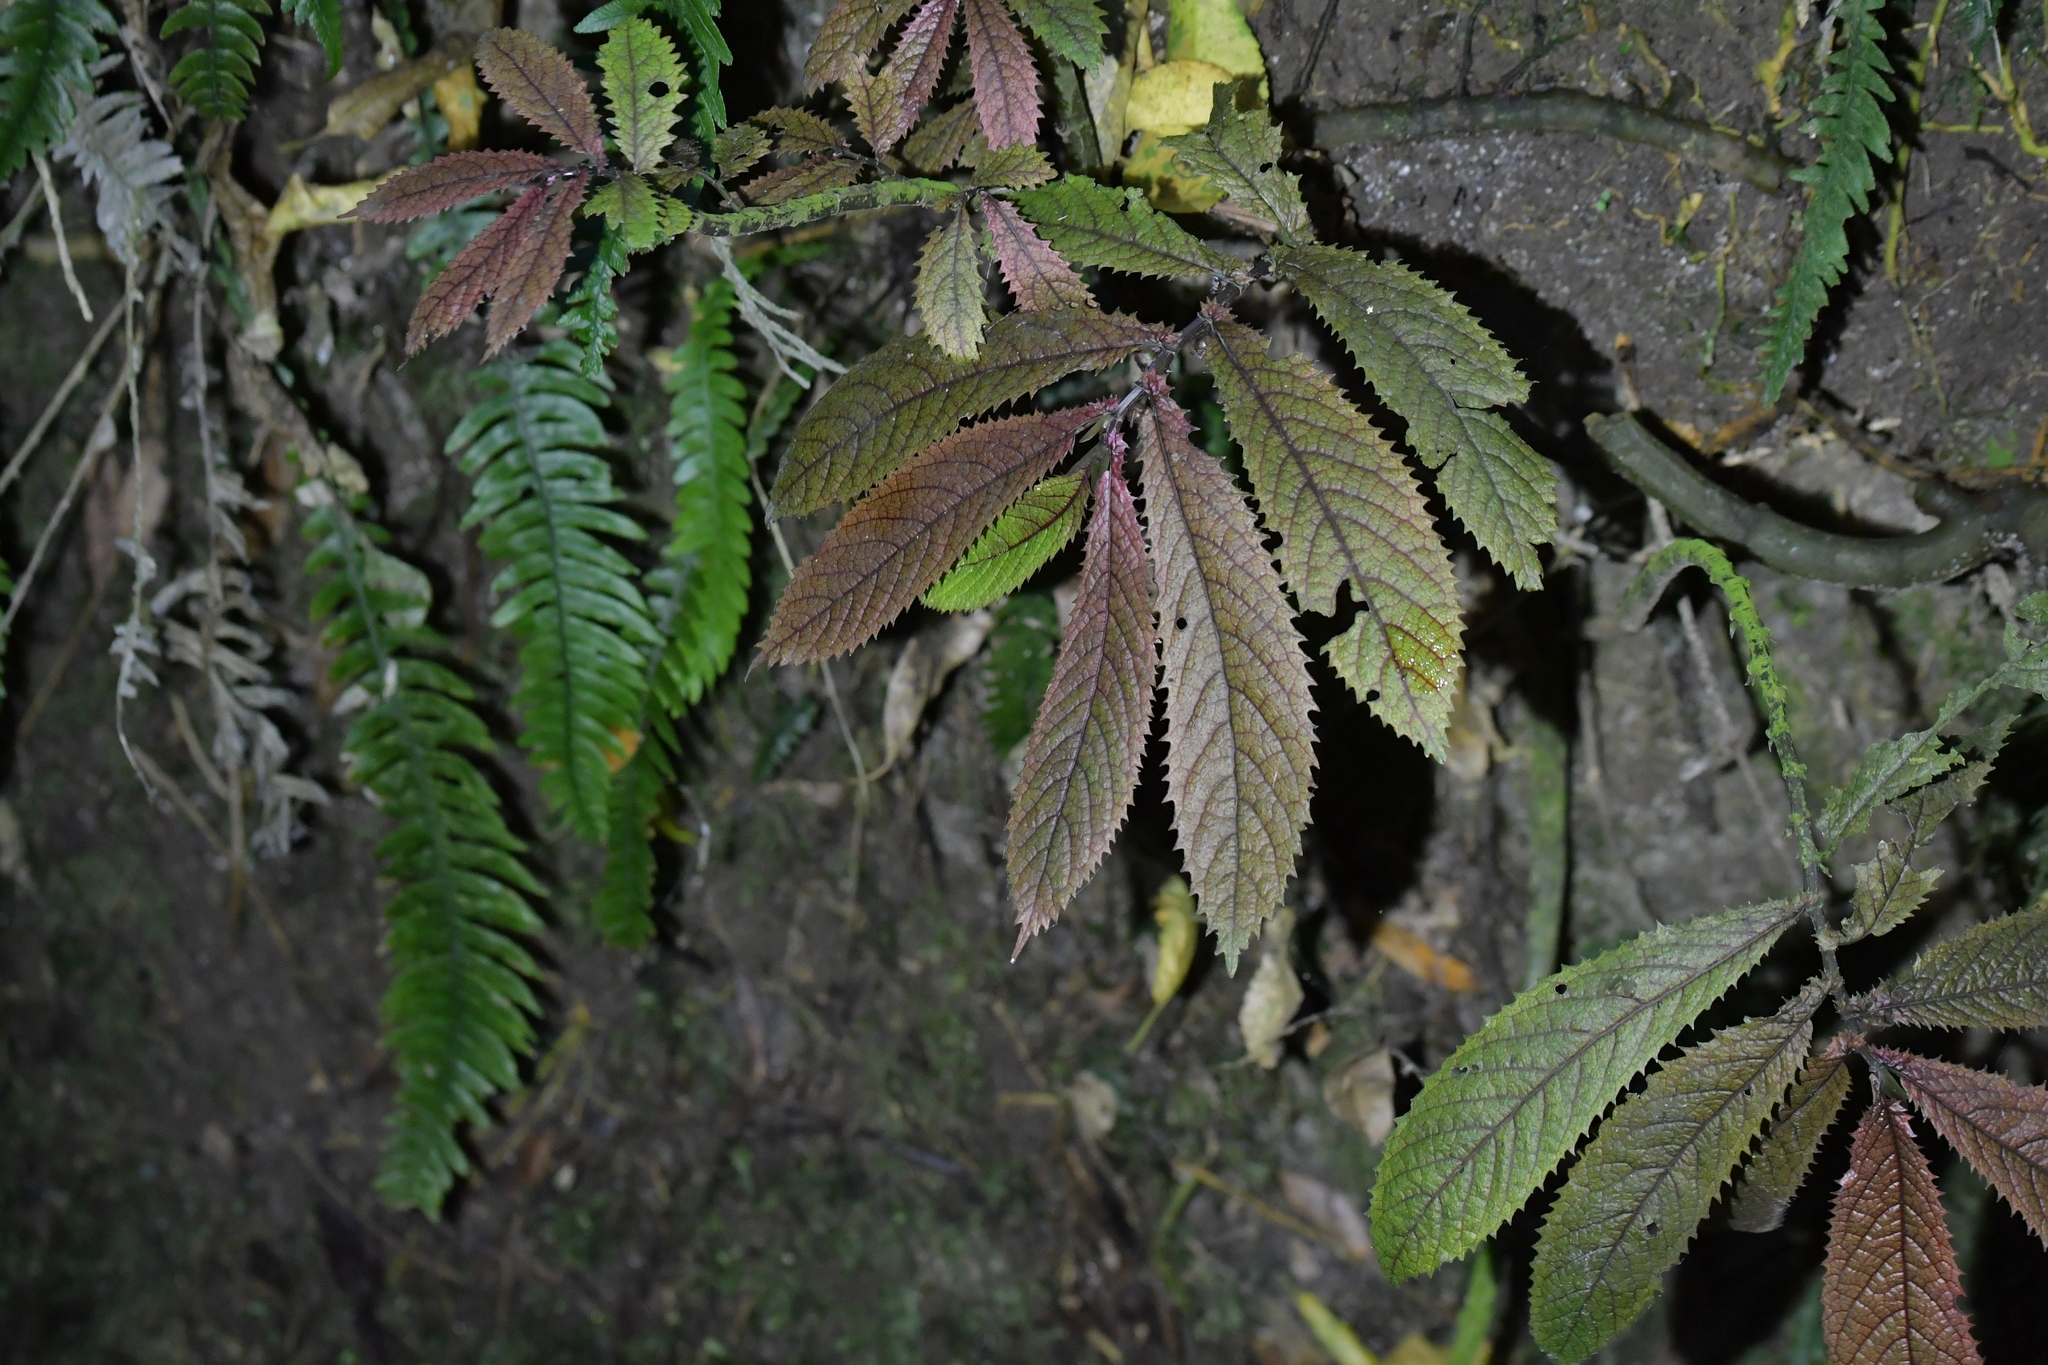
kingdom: Plantae
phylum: Tracheophyta
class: Magnoliopsida
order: Rosales
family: Urticaceae
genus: Elatostema
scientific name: Elatostema rugosum
